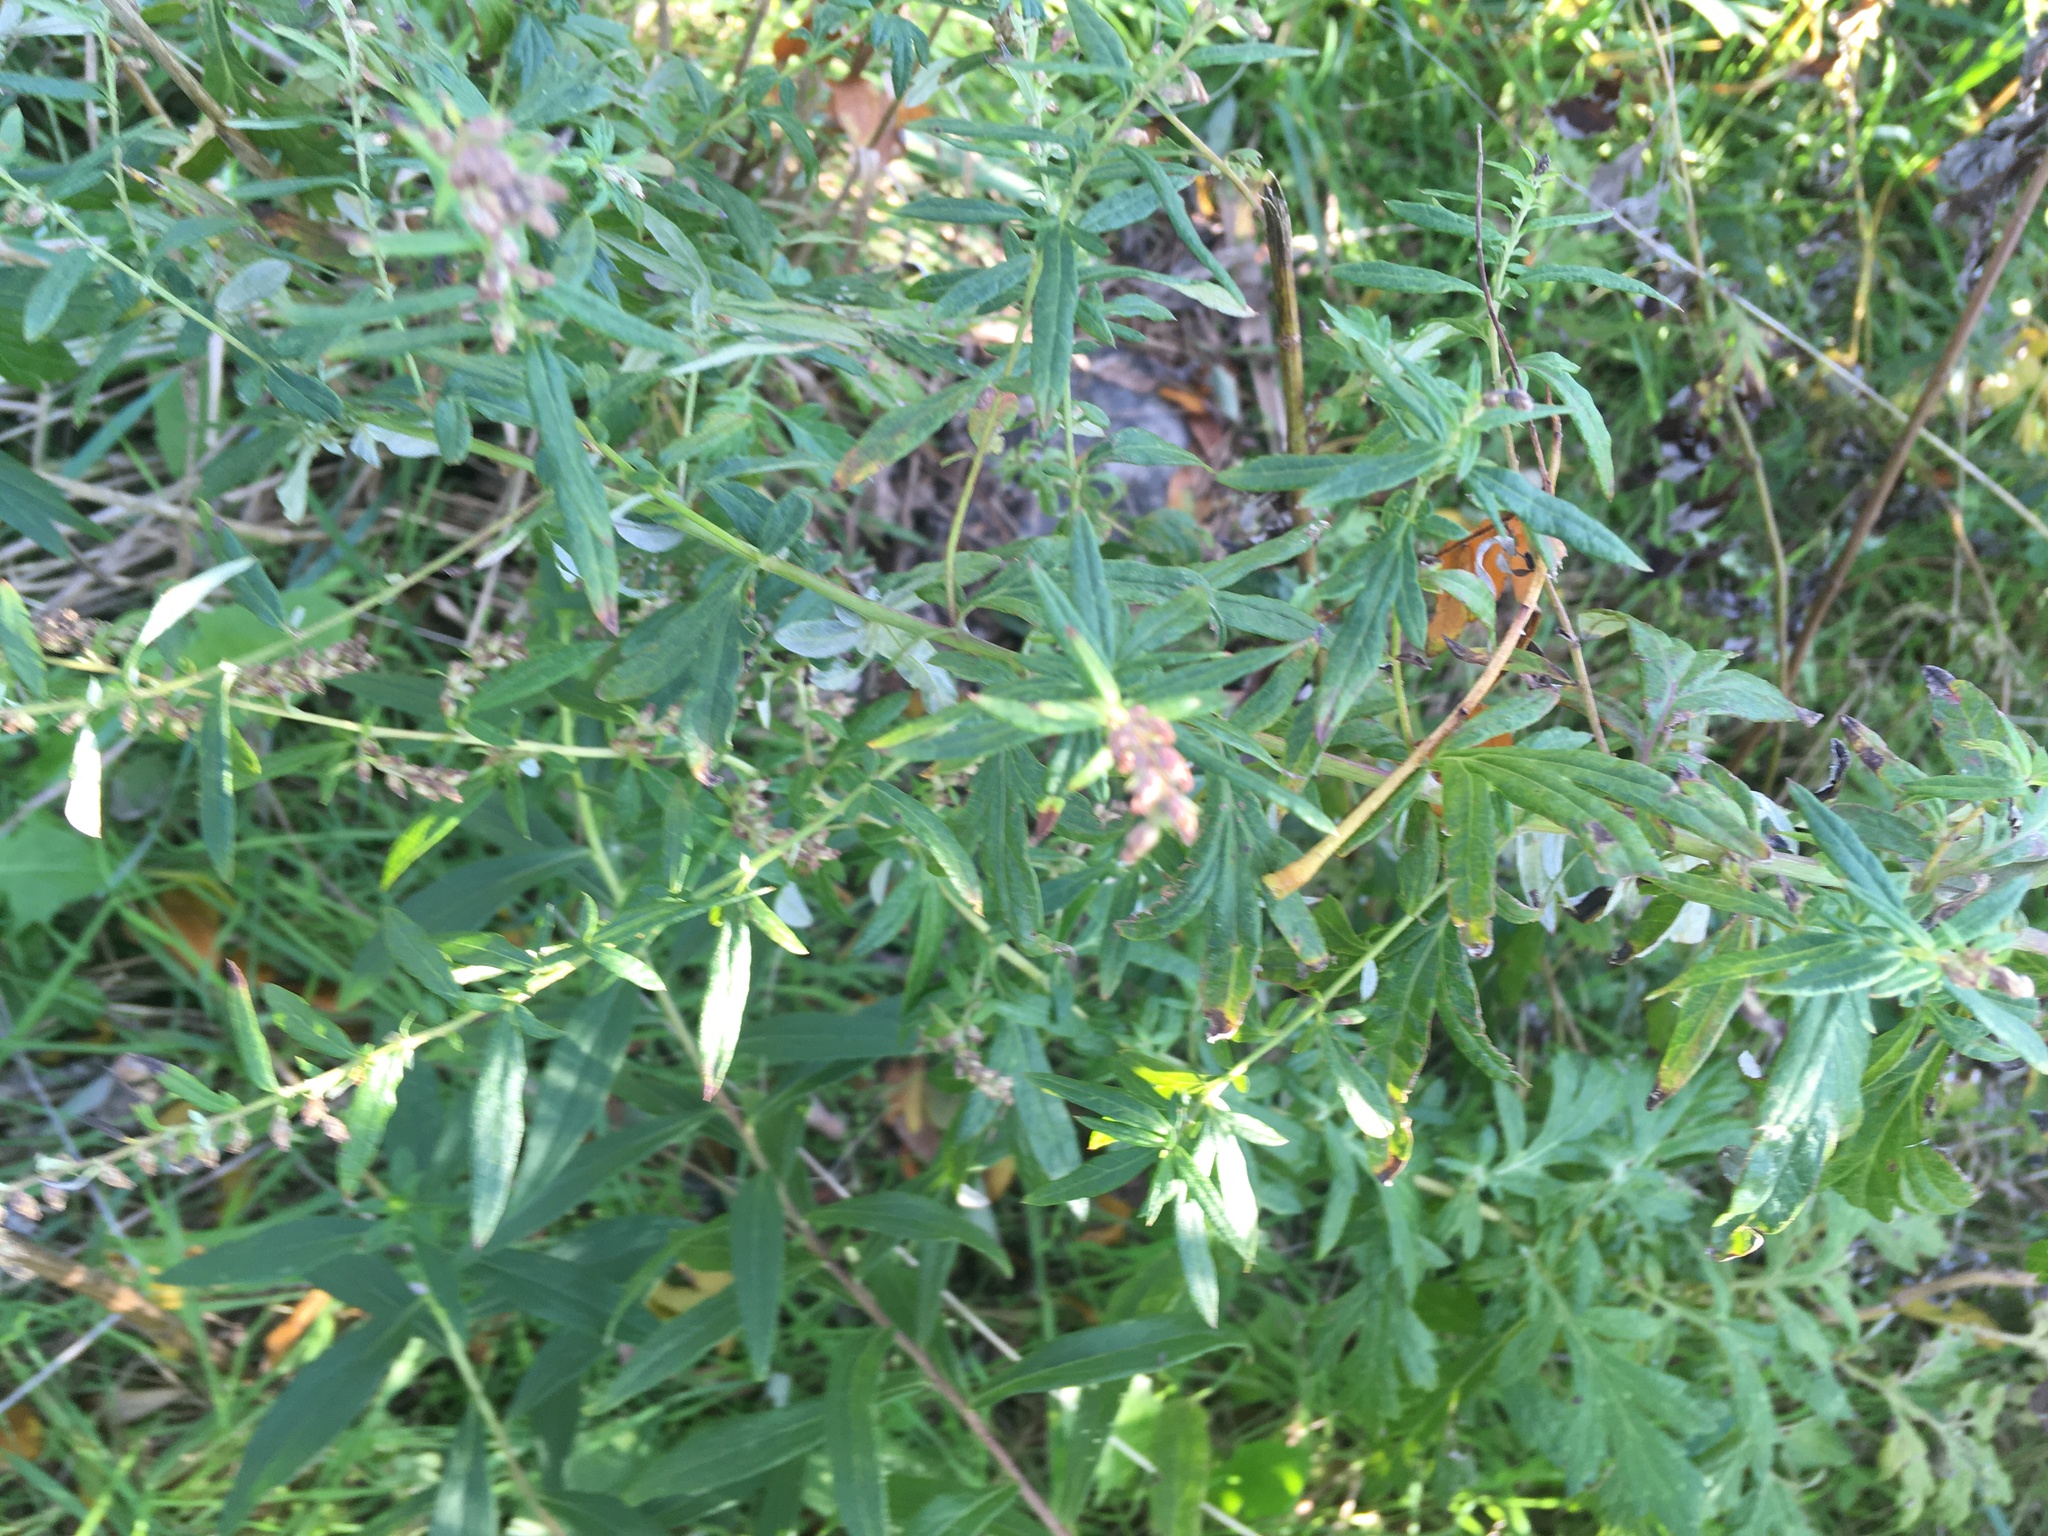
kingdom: Plantae
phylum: Tracheophyta
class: Magnoliopsida
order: Asterales
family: Asteraceae
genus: Artemisia
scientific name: Artemisia vulgaris
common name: Mugwort
